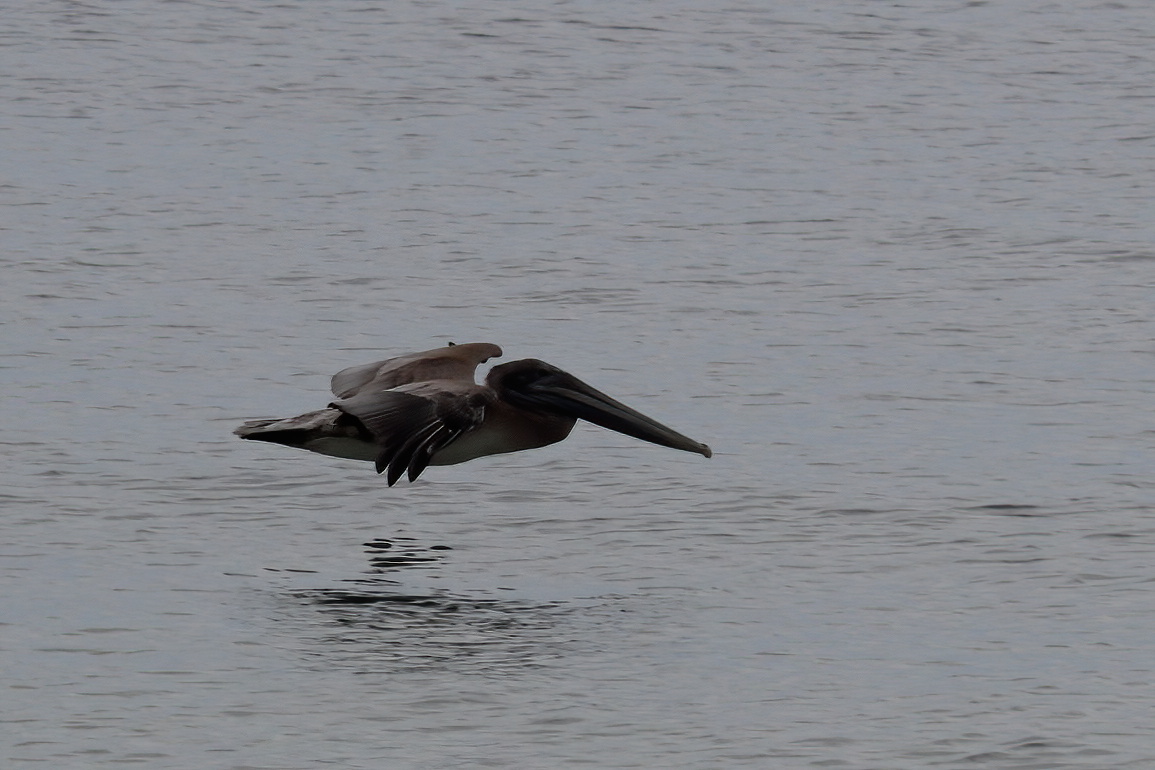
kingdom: Animalia
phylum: Chordata
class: Aves
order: Pelecaniformes
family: Pelecanidae
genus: Pelecanus
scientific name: Pelecanus occidentalis
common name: Brown pelican
